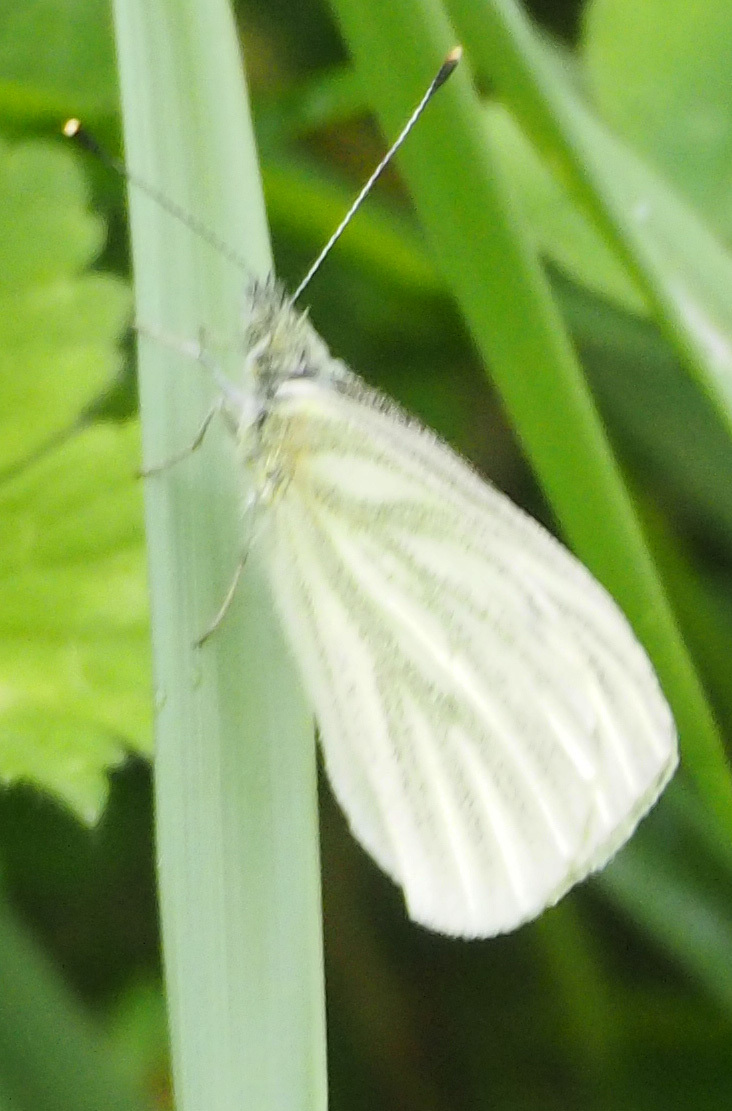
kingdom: Animalia
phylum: Arthropoda
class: Insecta
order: Lepidoptera
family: Pieridae
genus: Pieris
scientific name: Pieris marginalis
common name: Margined white
